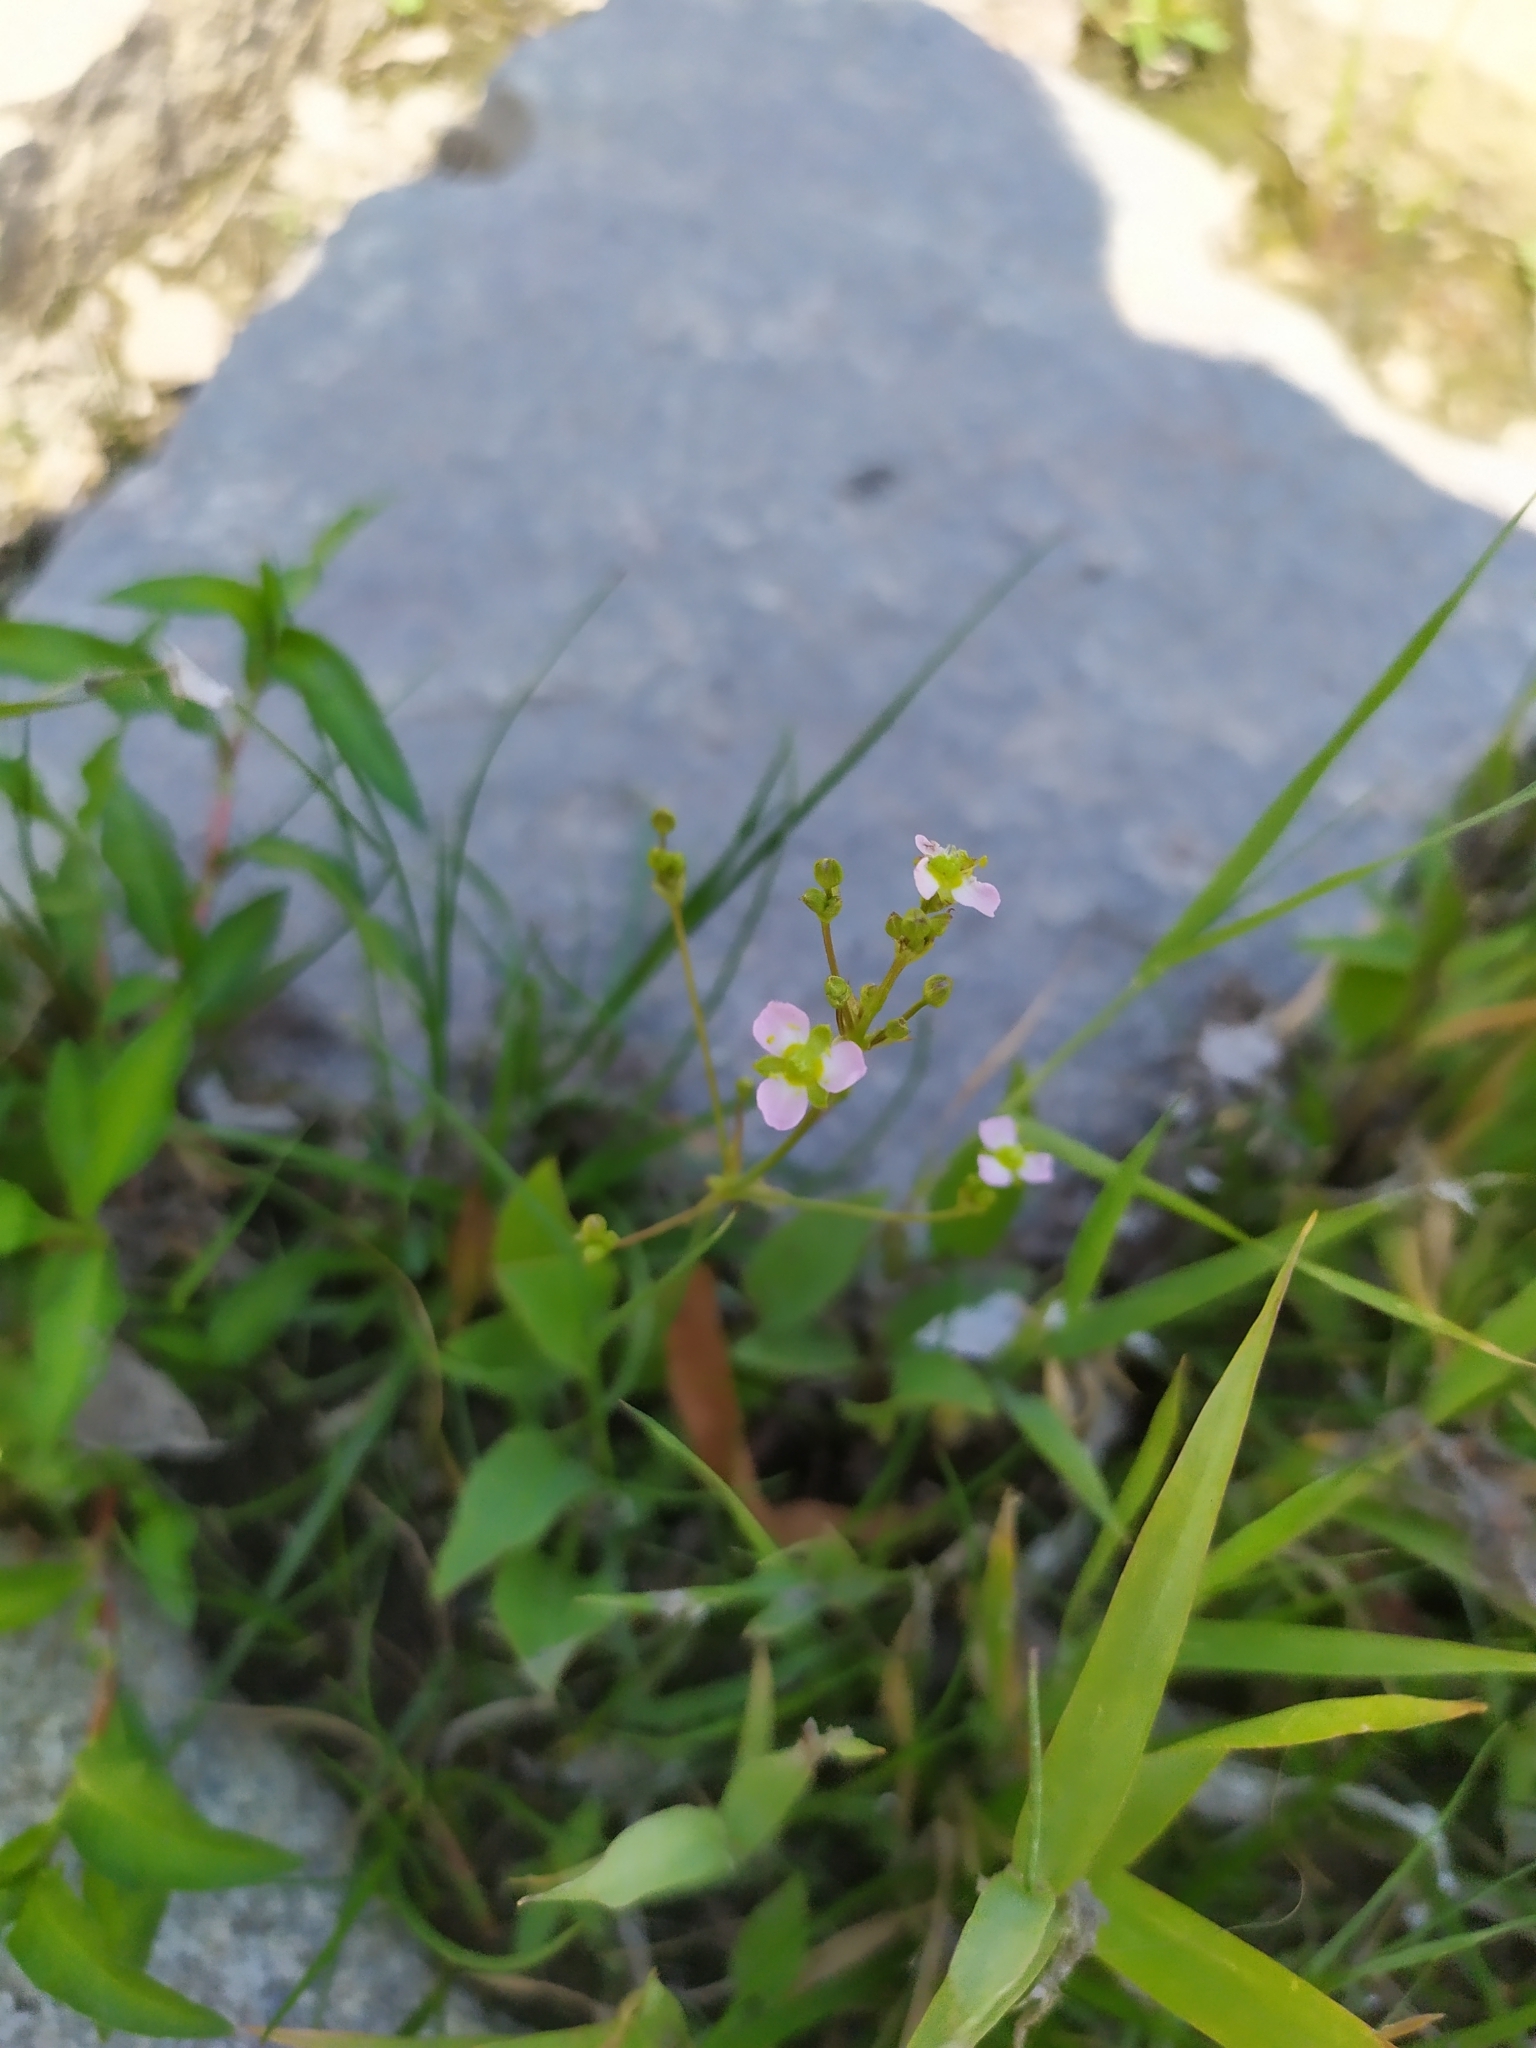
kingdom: Plantae
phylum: Tracheophyta
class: Liliopsida
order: Alismatales
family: Alismataceae
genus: Alisma
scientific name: Alisma plantago-aquatica
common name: Water-plantain
